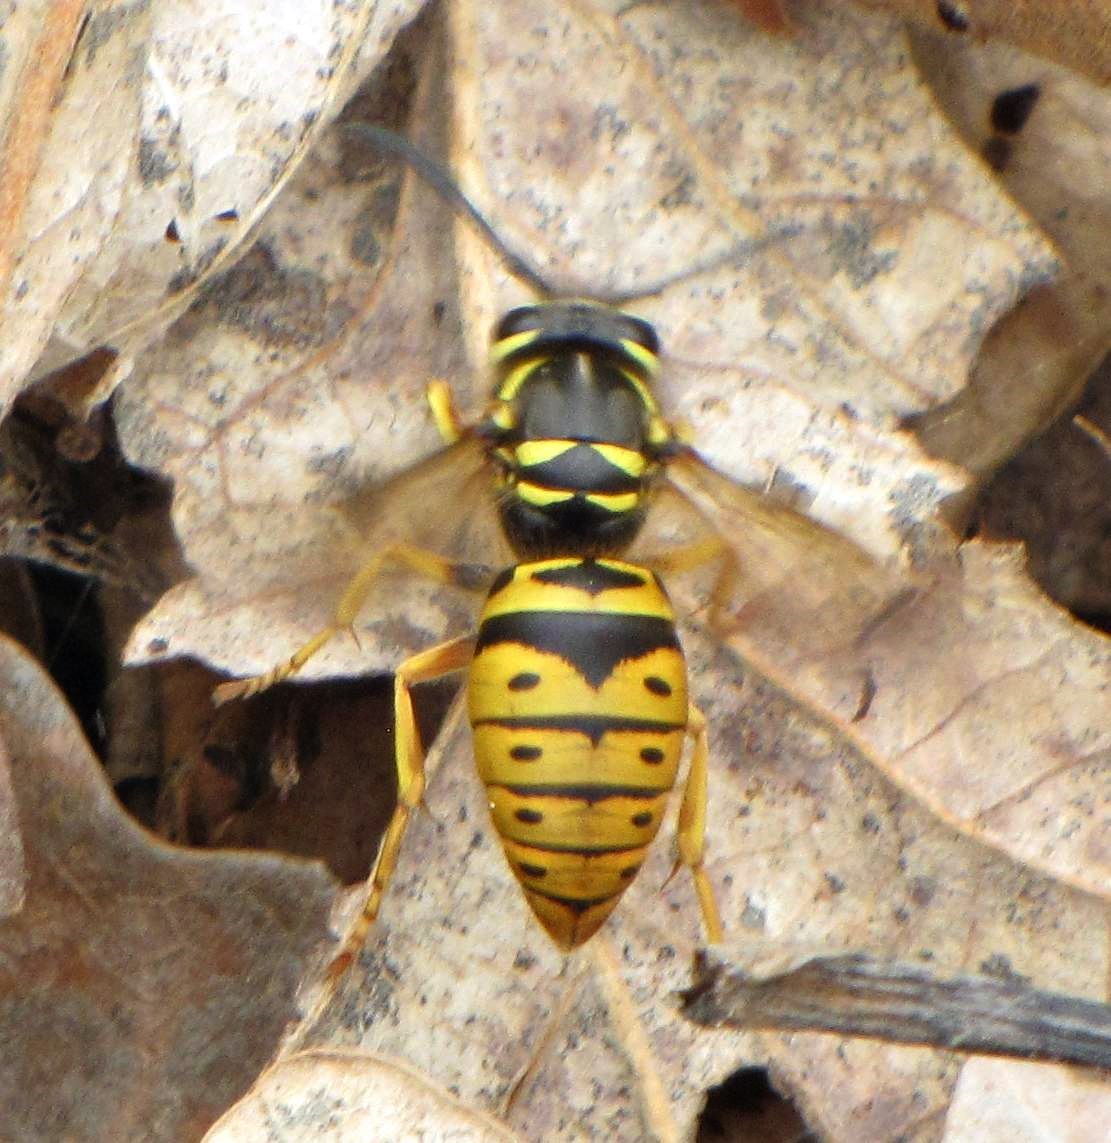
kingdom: Animalia
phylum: Arthropoda
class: Insecta
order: Hymenoptera
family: Vespidae
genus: Vespula
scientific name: Vespula maculifrons
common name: Eastern yellowjacket
